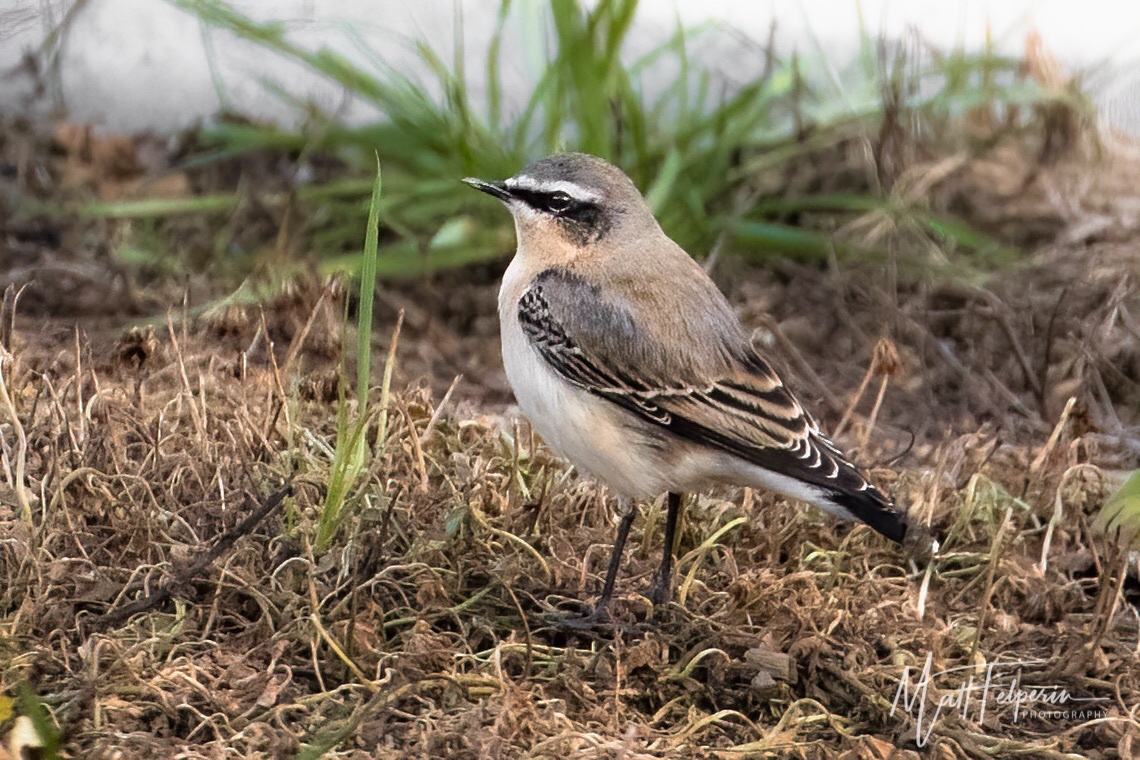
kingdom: Animalia
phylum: Chordata
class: Aves
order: Passeriformes
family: Muscicapidae
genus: Oenanthe
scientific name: Oenanthe oenanthe
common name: Northern wheatear
